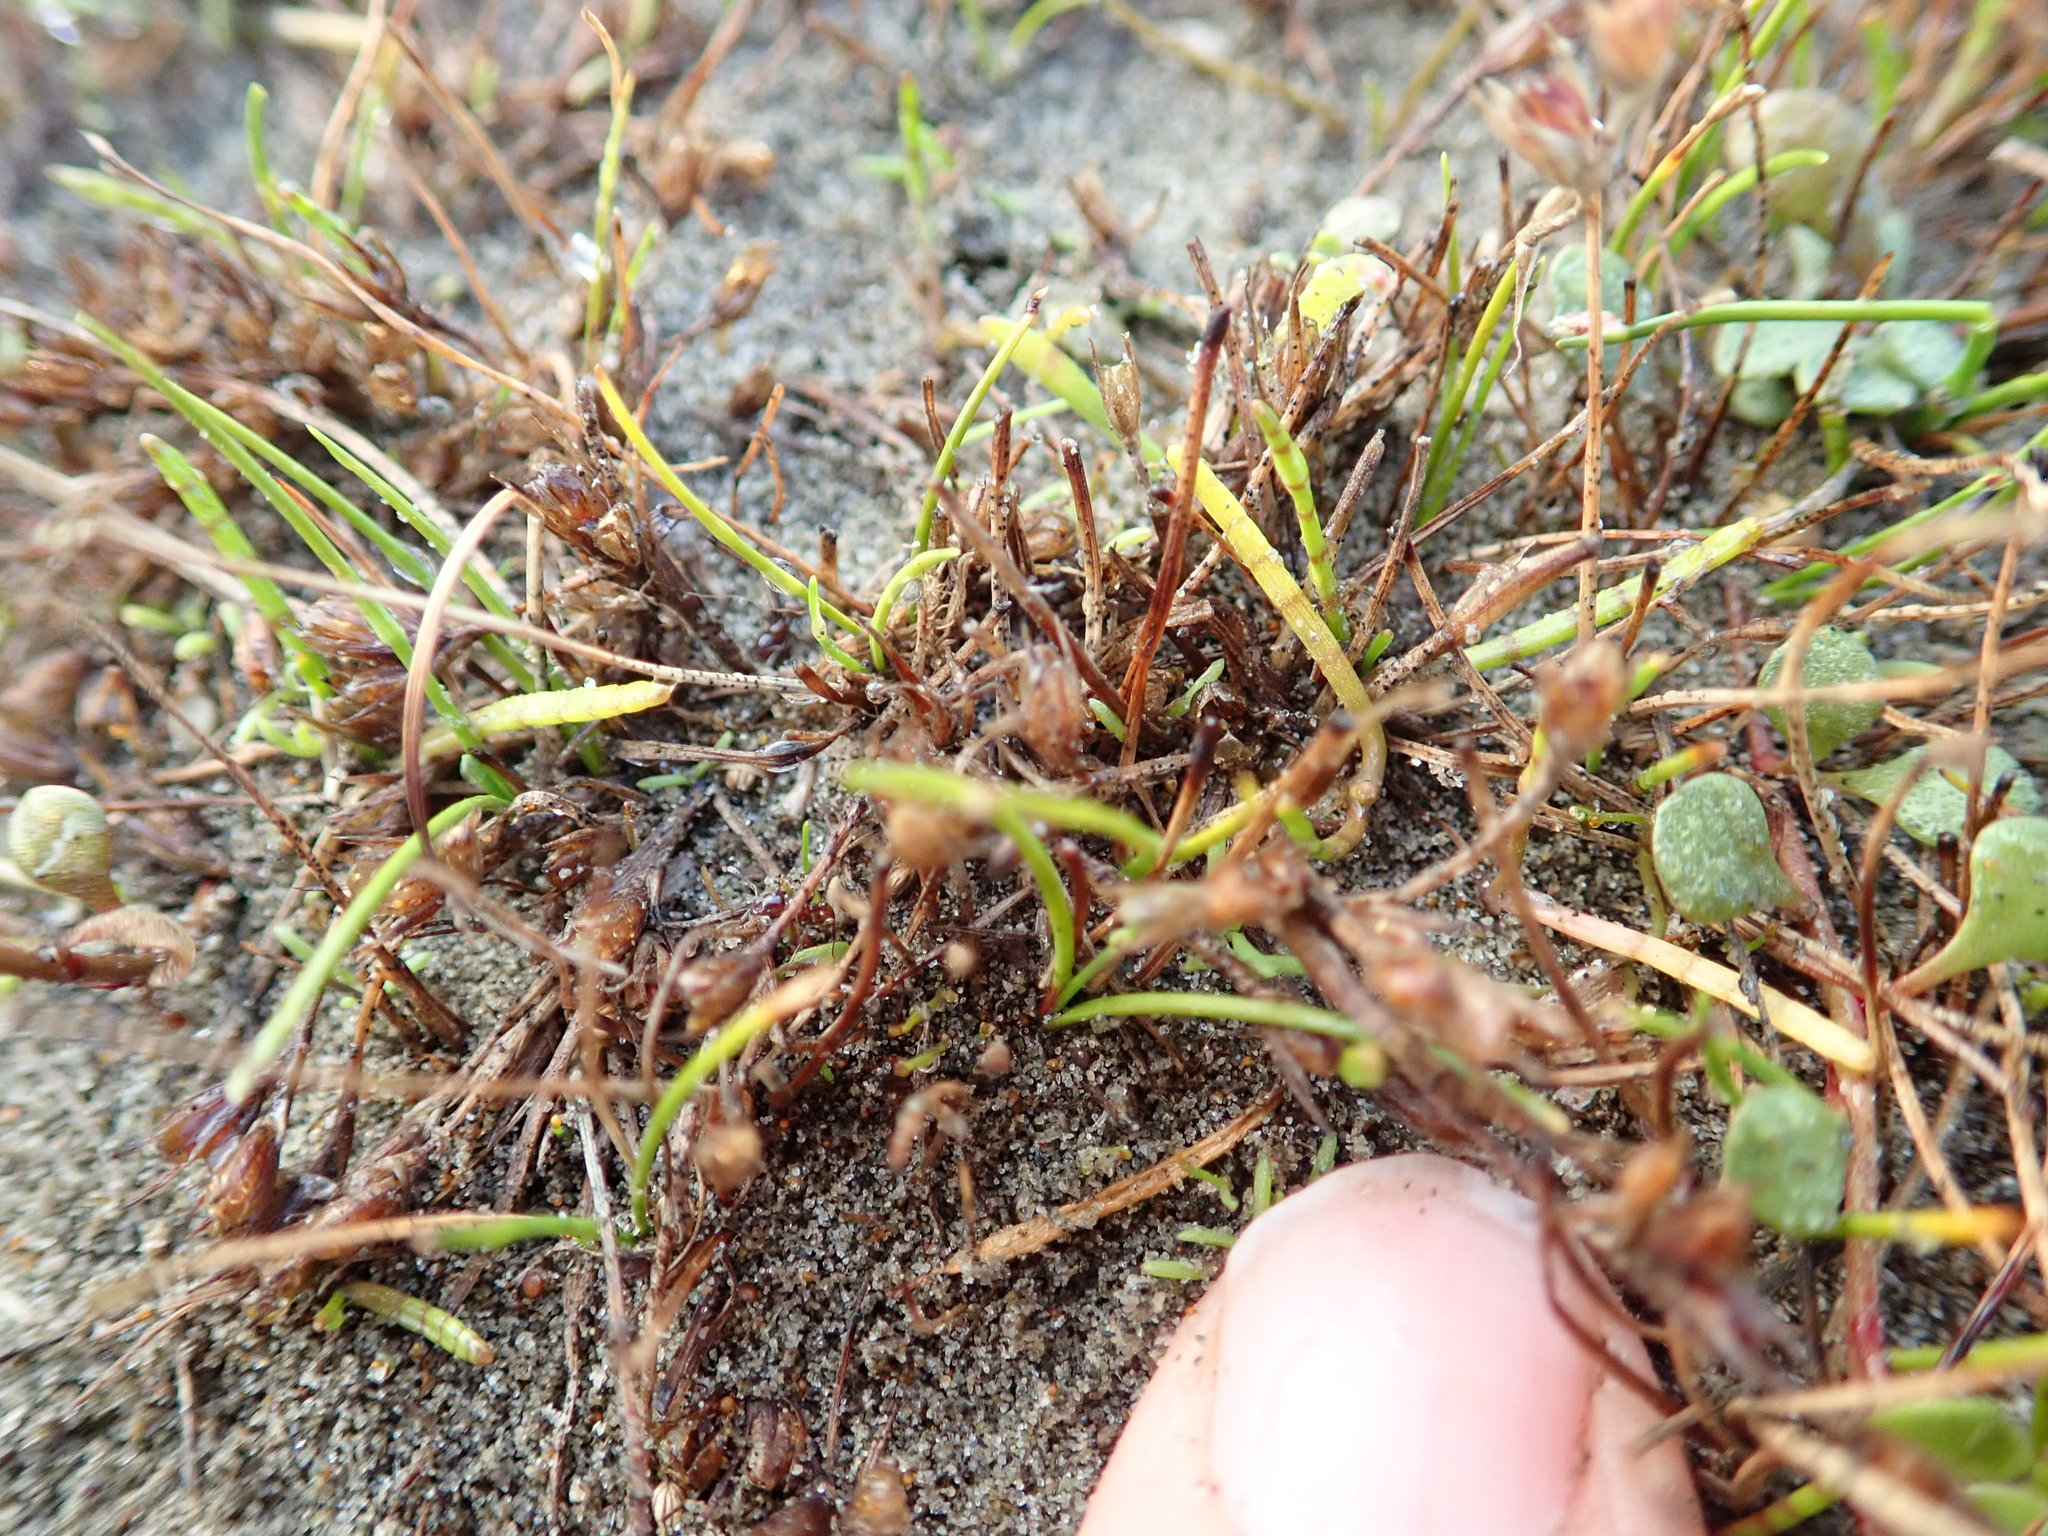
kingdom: Plantae
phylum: Tracheophyta
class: Liliopsida
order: Poales
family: Juncaceae
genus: Juncus
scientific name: Juncus bufonius
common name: Toad rush
